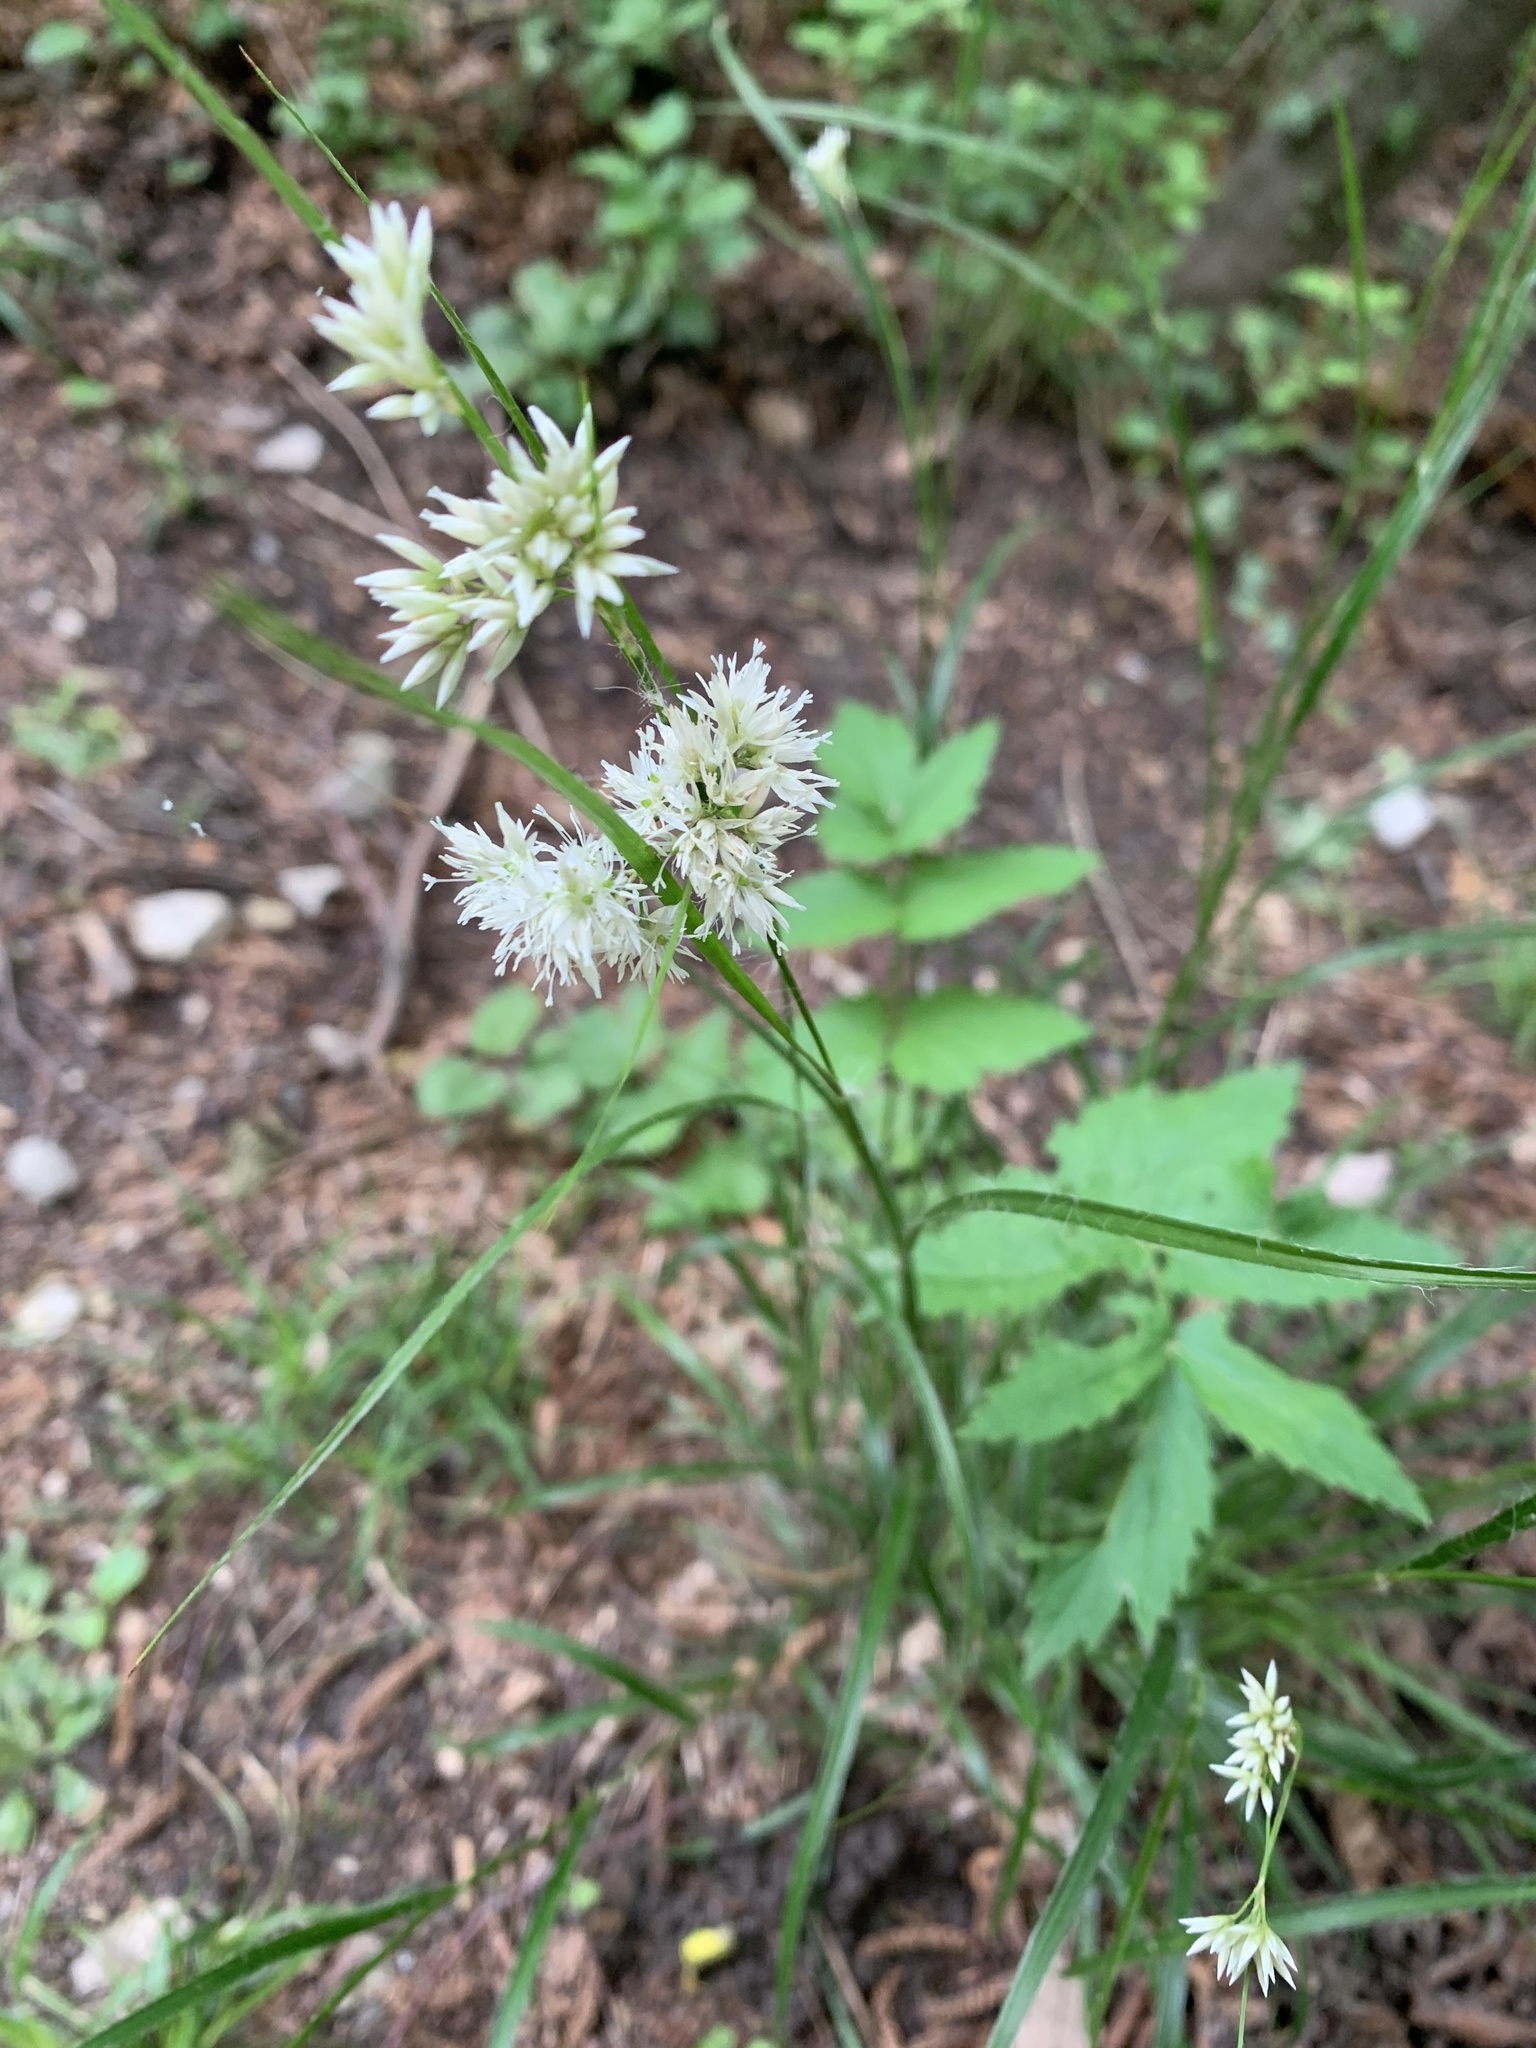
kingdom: Plantae
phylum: Tracheophyta
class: Liliopsida
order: Poales
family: Juncaceae
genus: Luzula
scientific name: Luzula nivea
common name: Snow-white wood-rush
